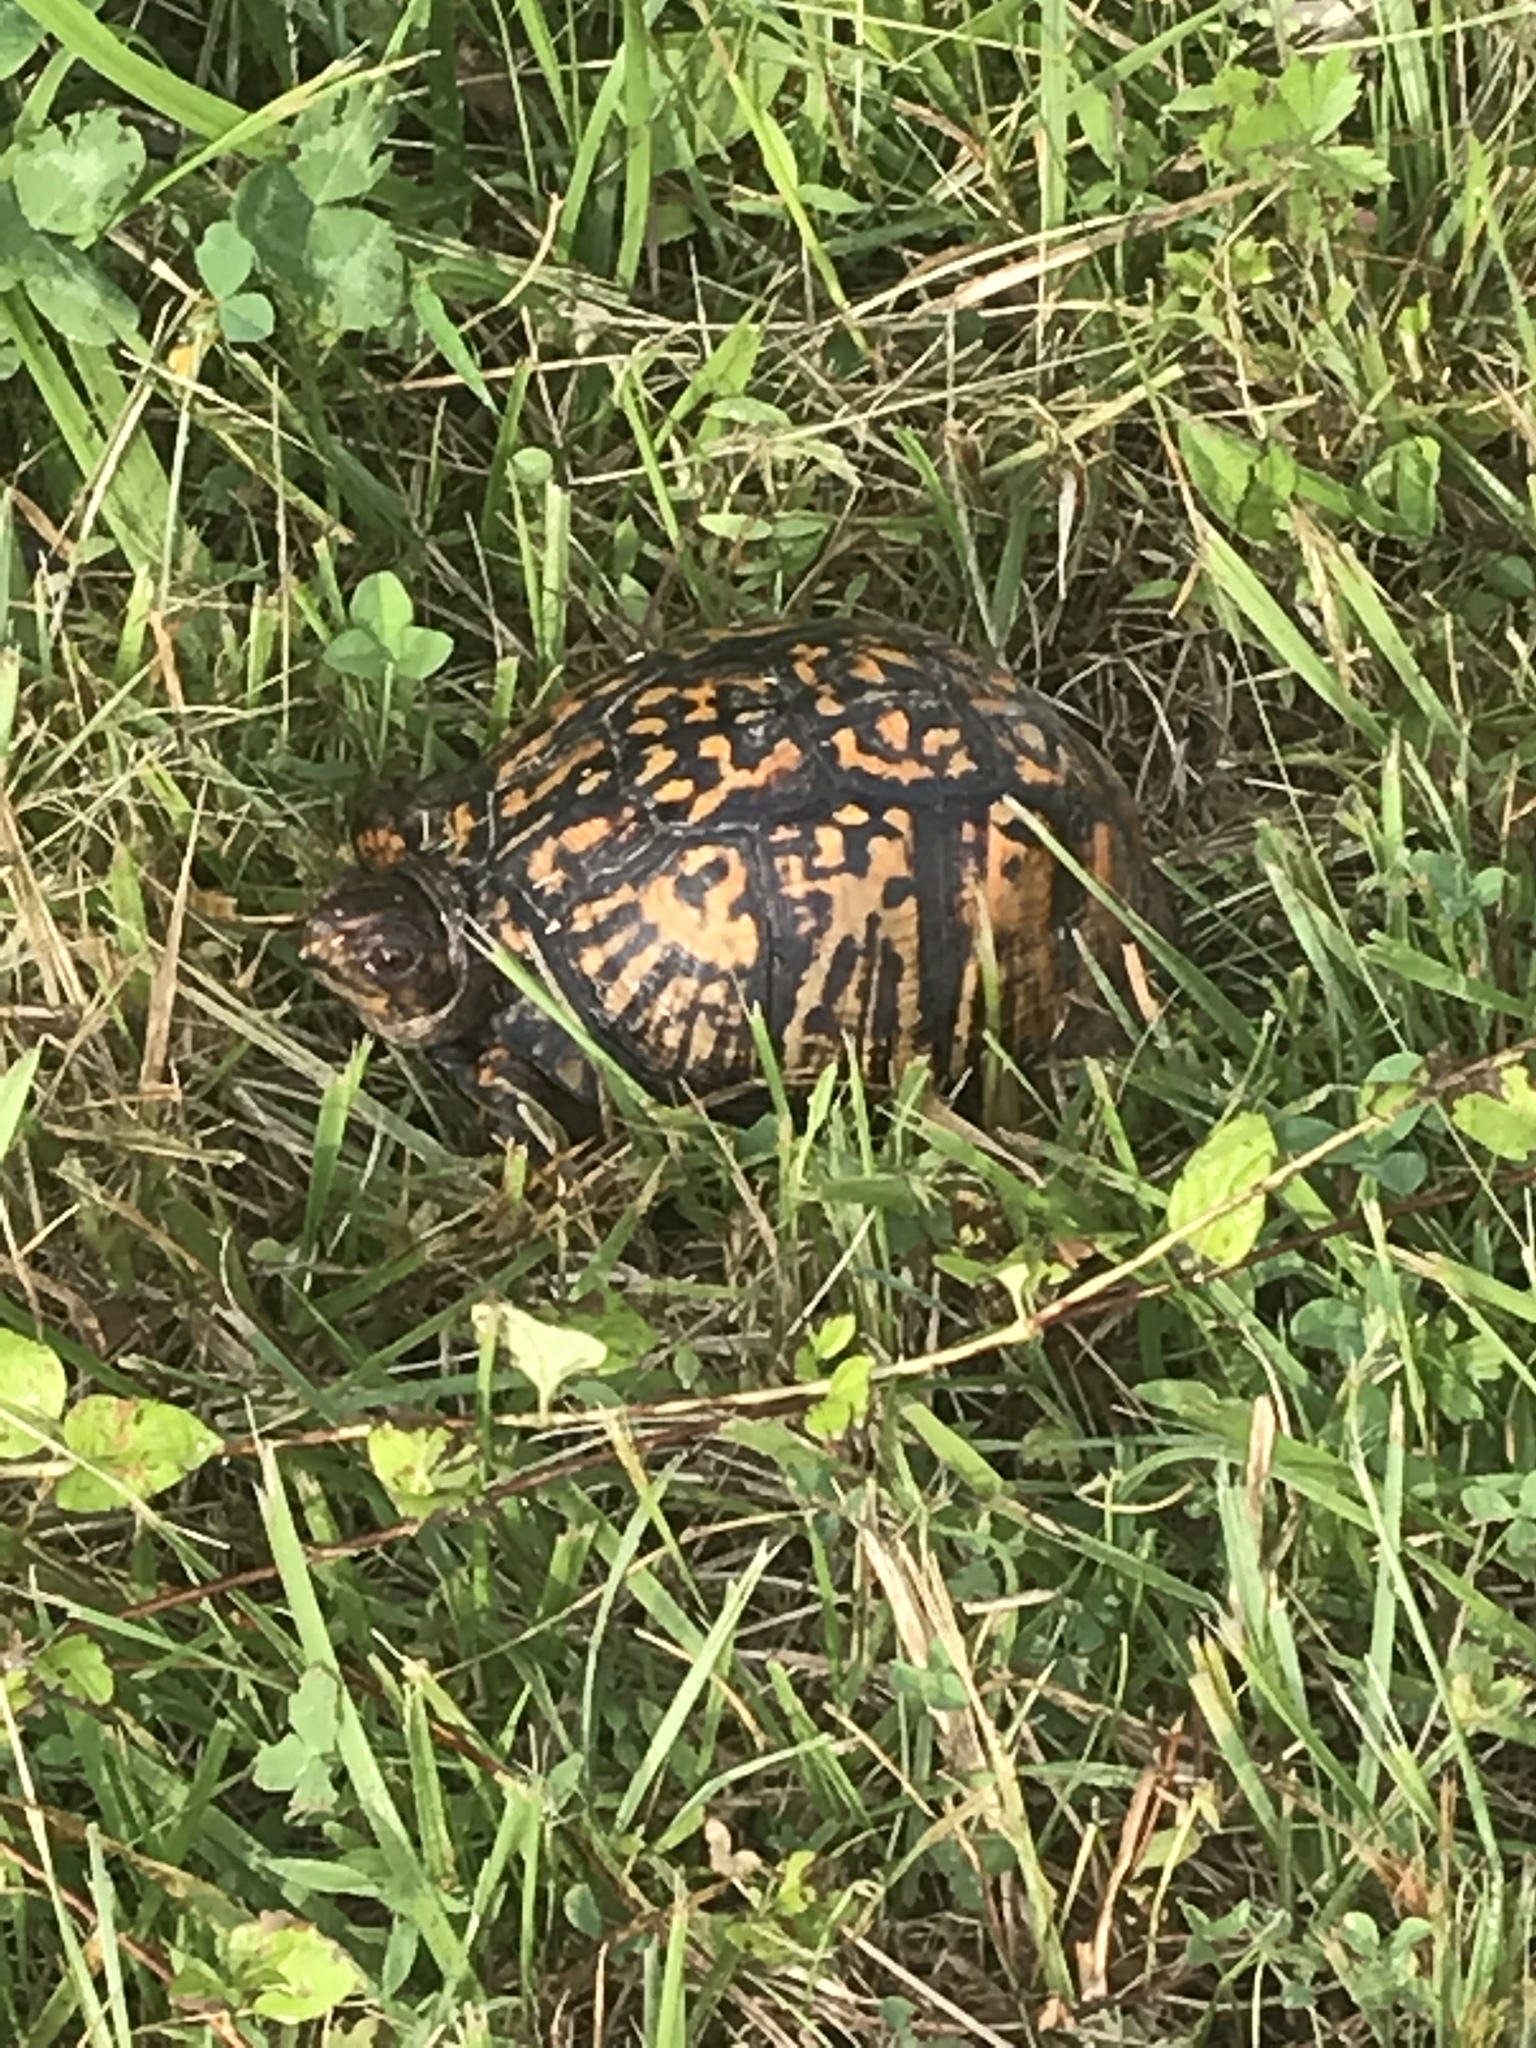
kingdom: Animalia
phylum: Chordata
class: Testudines
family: Emydidae
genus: Terrapene
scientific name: Terrapene carolina
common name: Common box turtle
